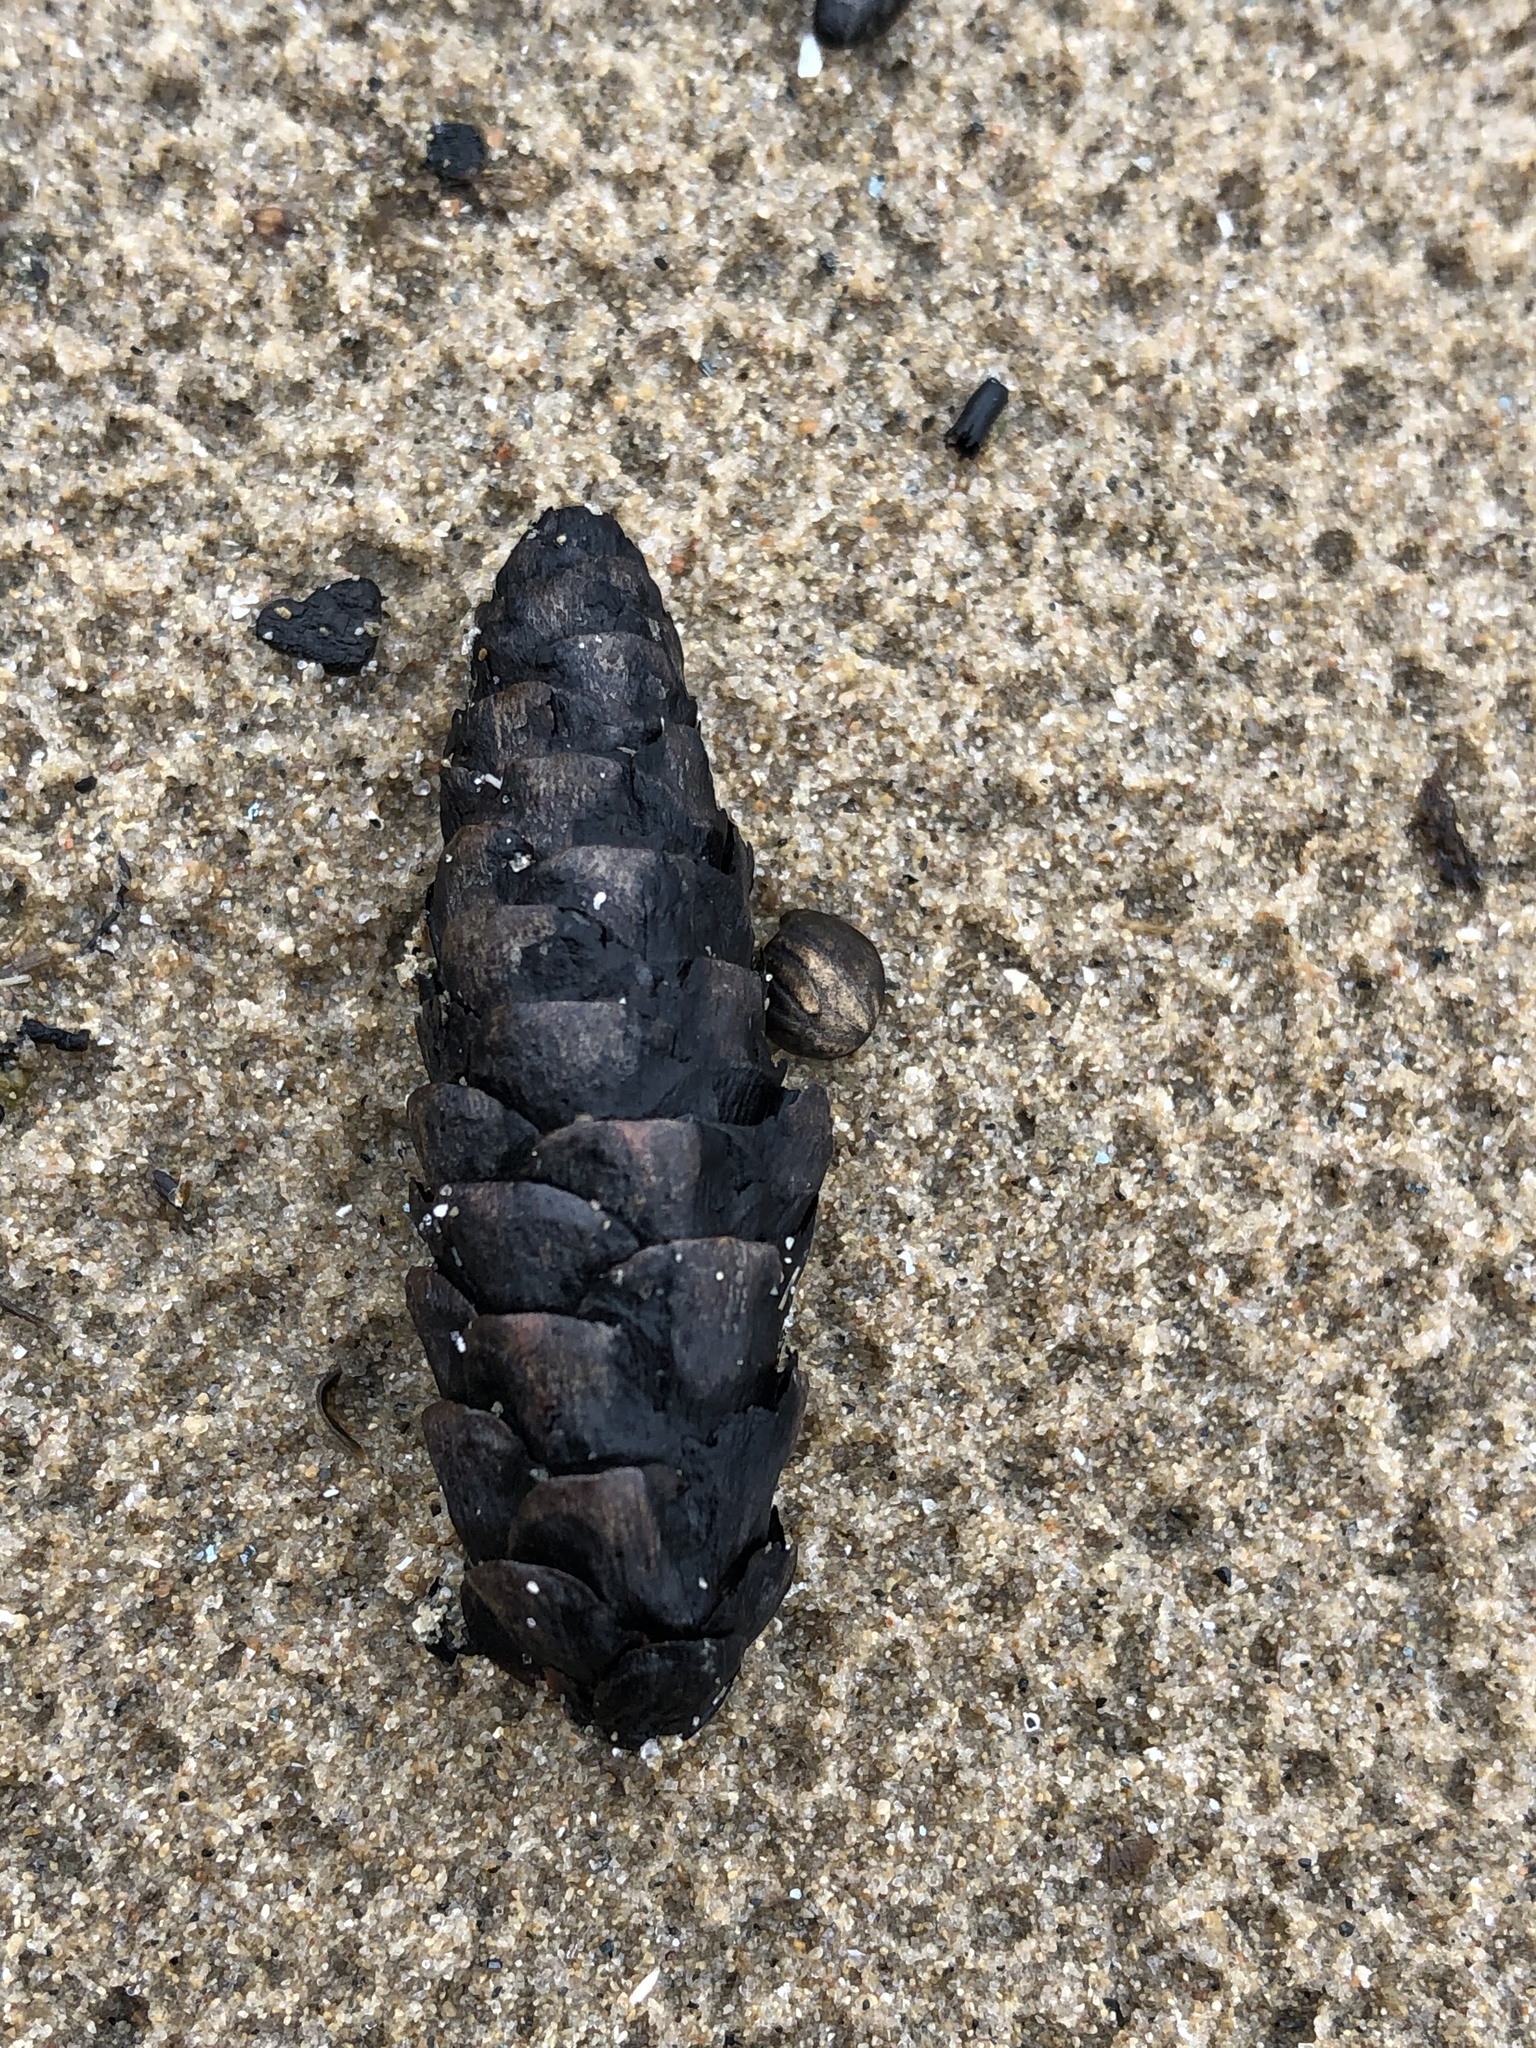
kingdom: Plantae
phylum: Tracheophyta
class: Pinopsida
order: Pinales
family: Pinaceae
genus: Picea
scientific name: Picea glauca
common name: White spruce
